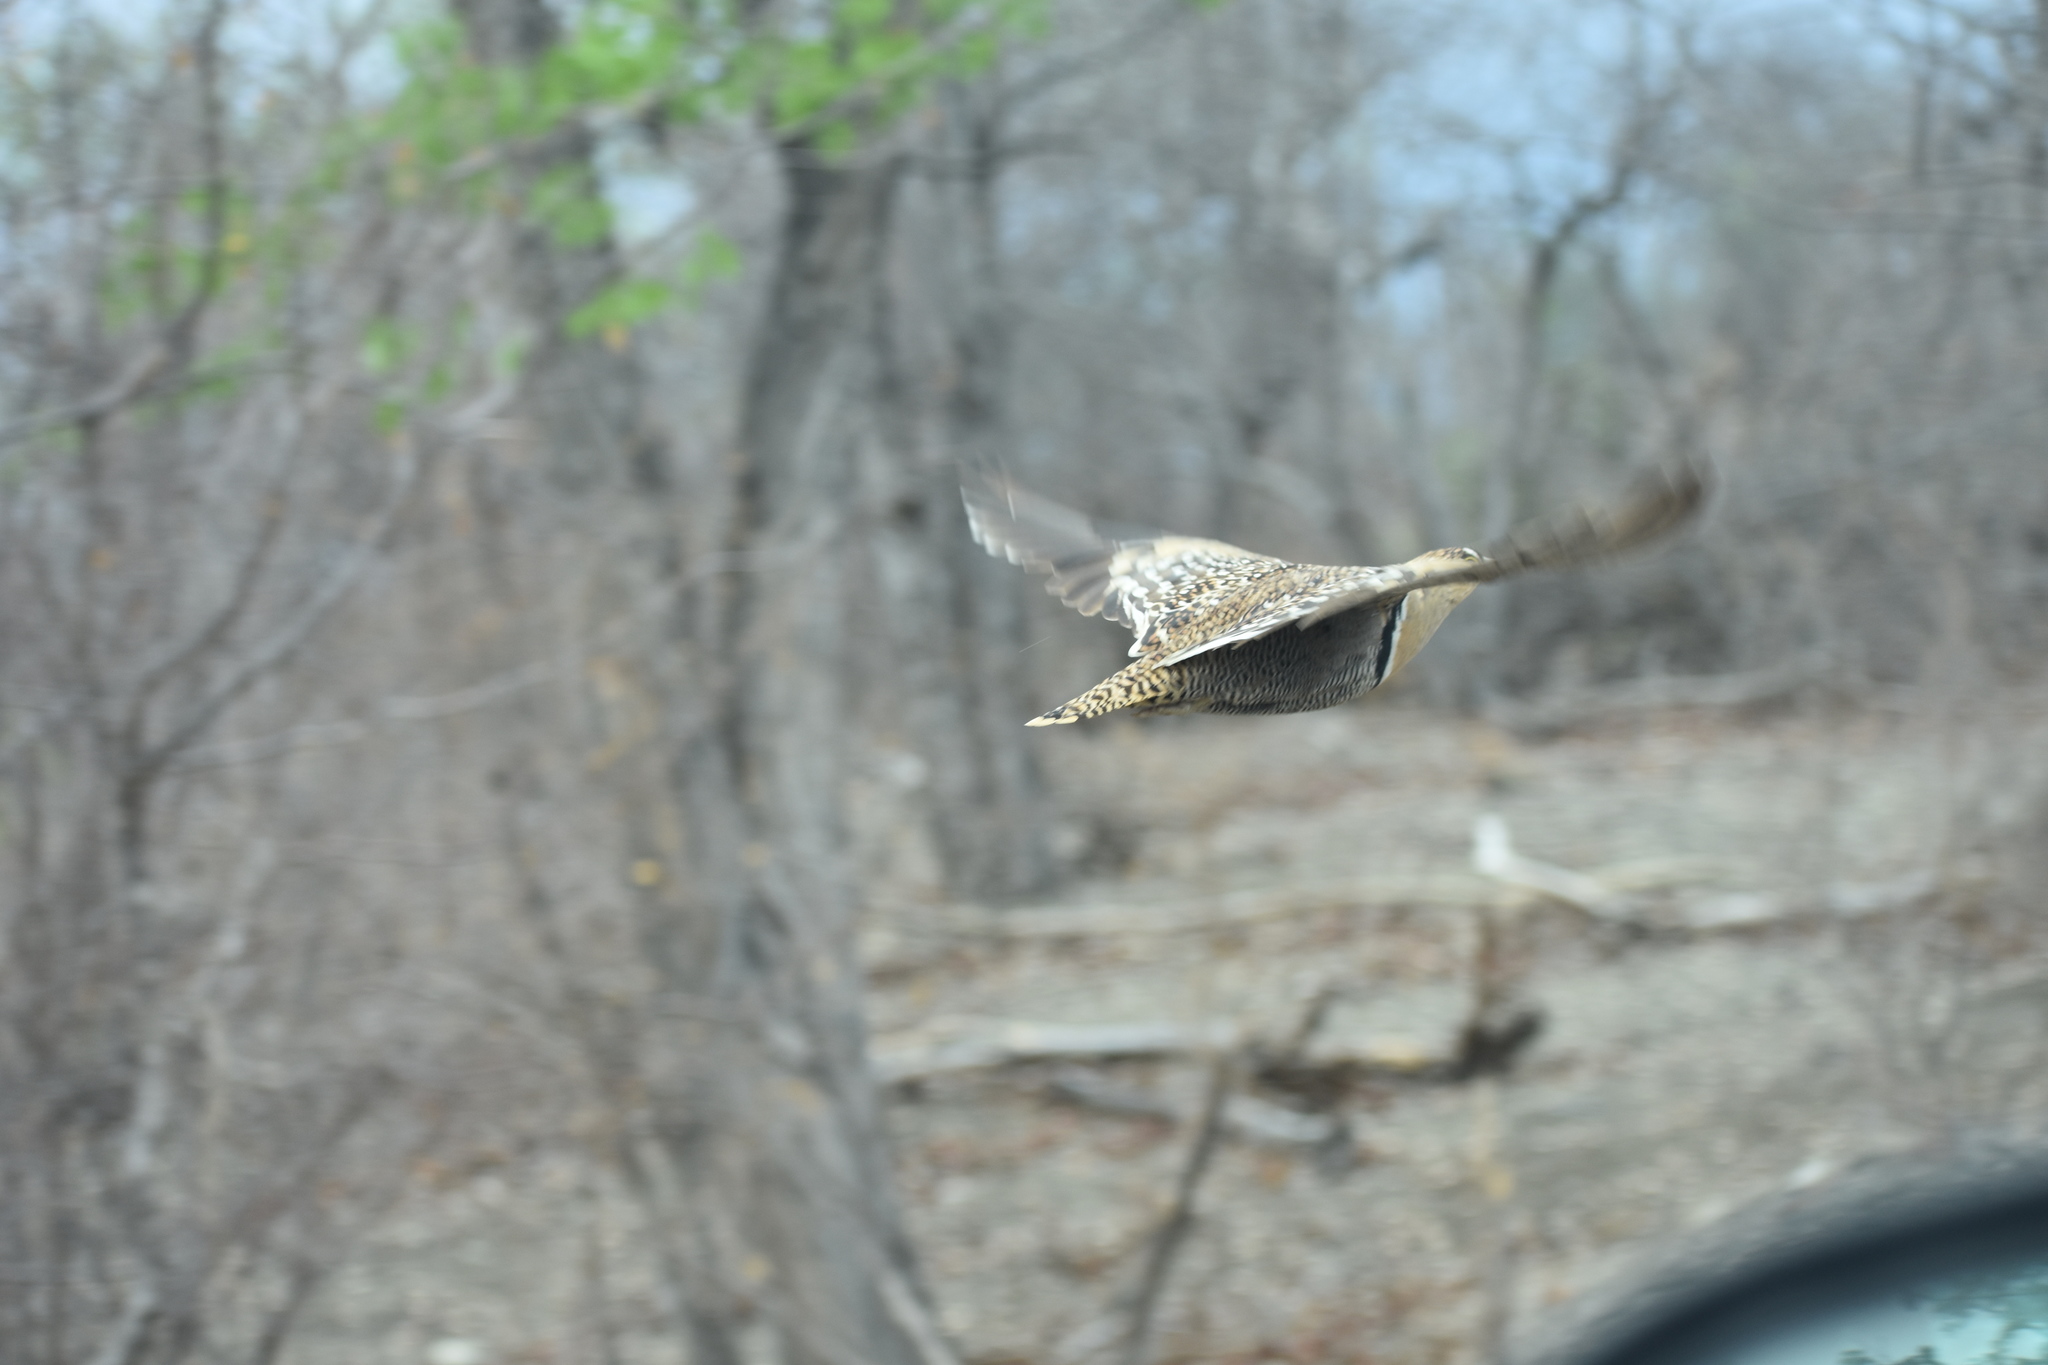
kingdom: Animalia
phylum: Chordata
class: Aves
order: Pteroclidiformes
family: Pteroclididae
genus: Pterocles
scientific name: Pterocles bicinctus
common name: Double-banded sandgrouse
